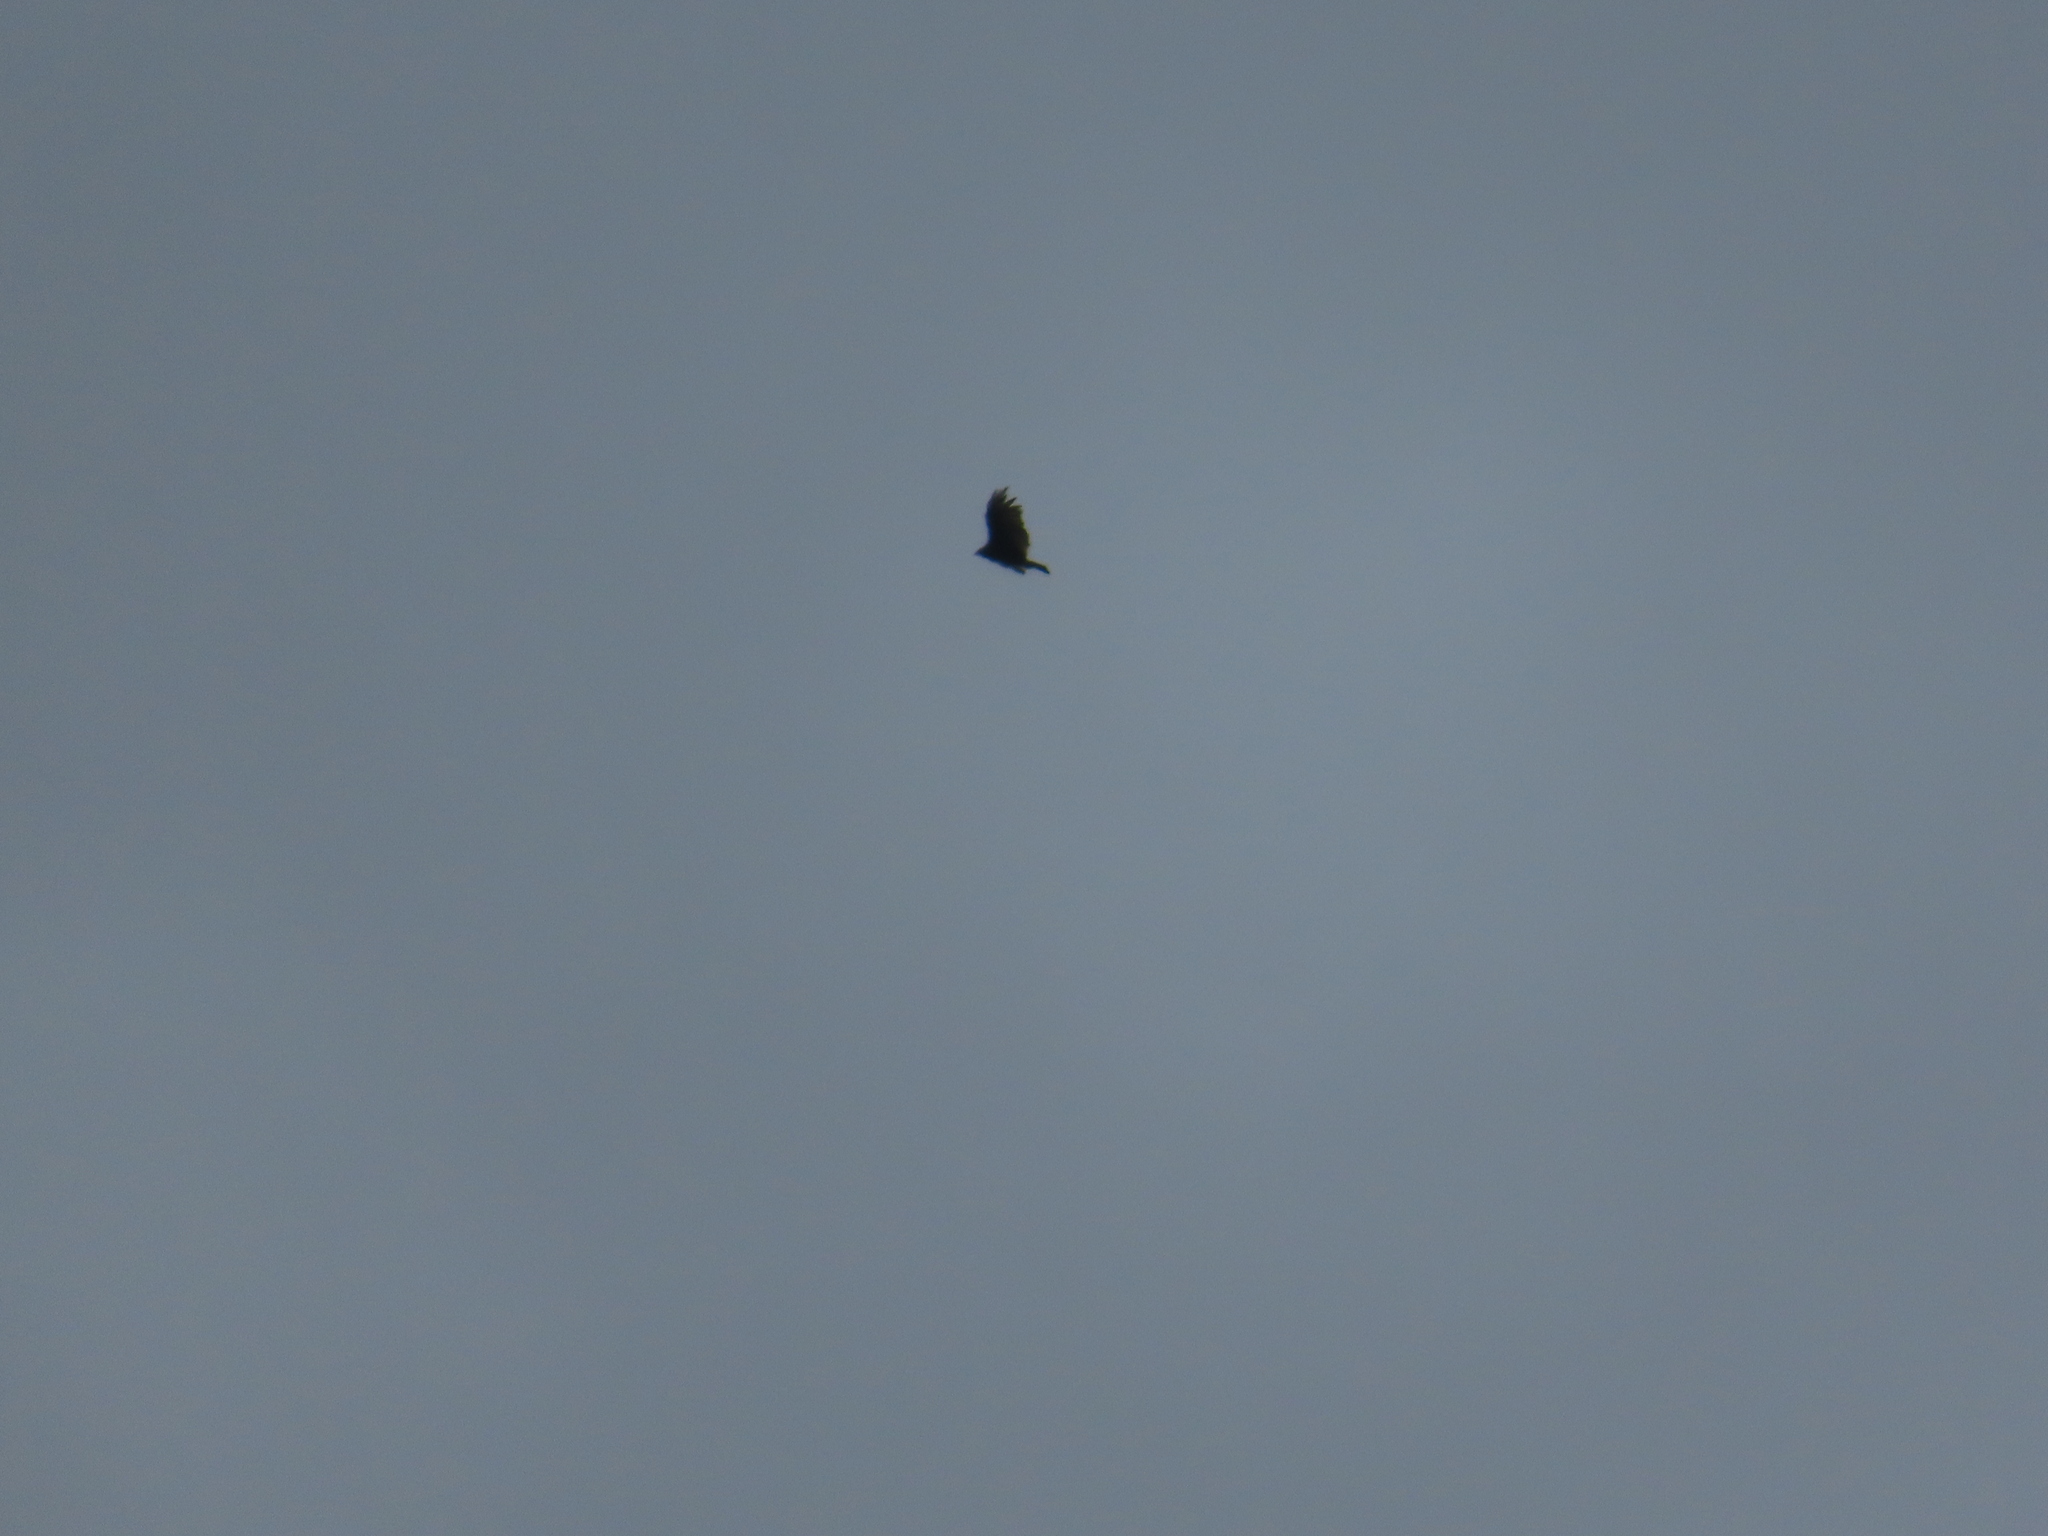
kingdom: Animalia
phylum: Chordata
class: Aves
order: Accipitriformes
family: Cathartidae
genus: Cathartes
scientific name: Cathartes aura
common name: Turkey vulture
